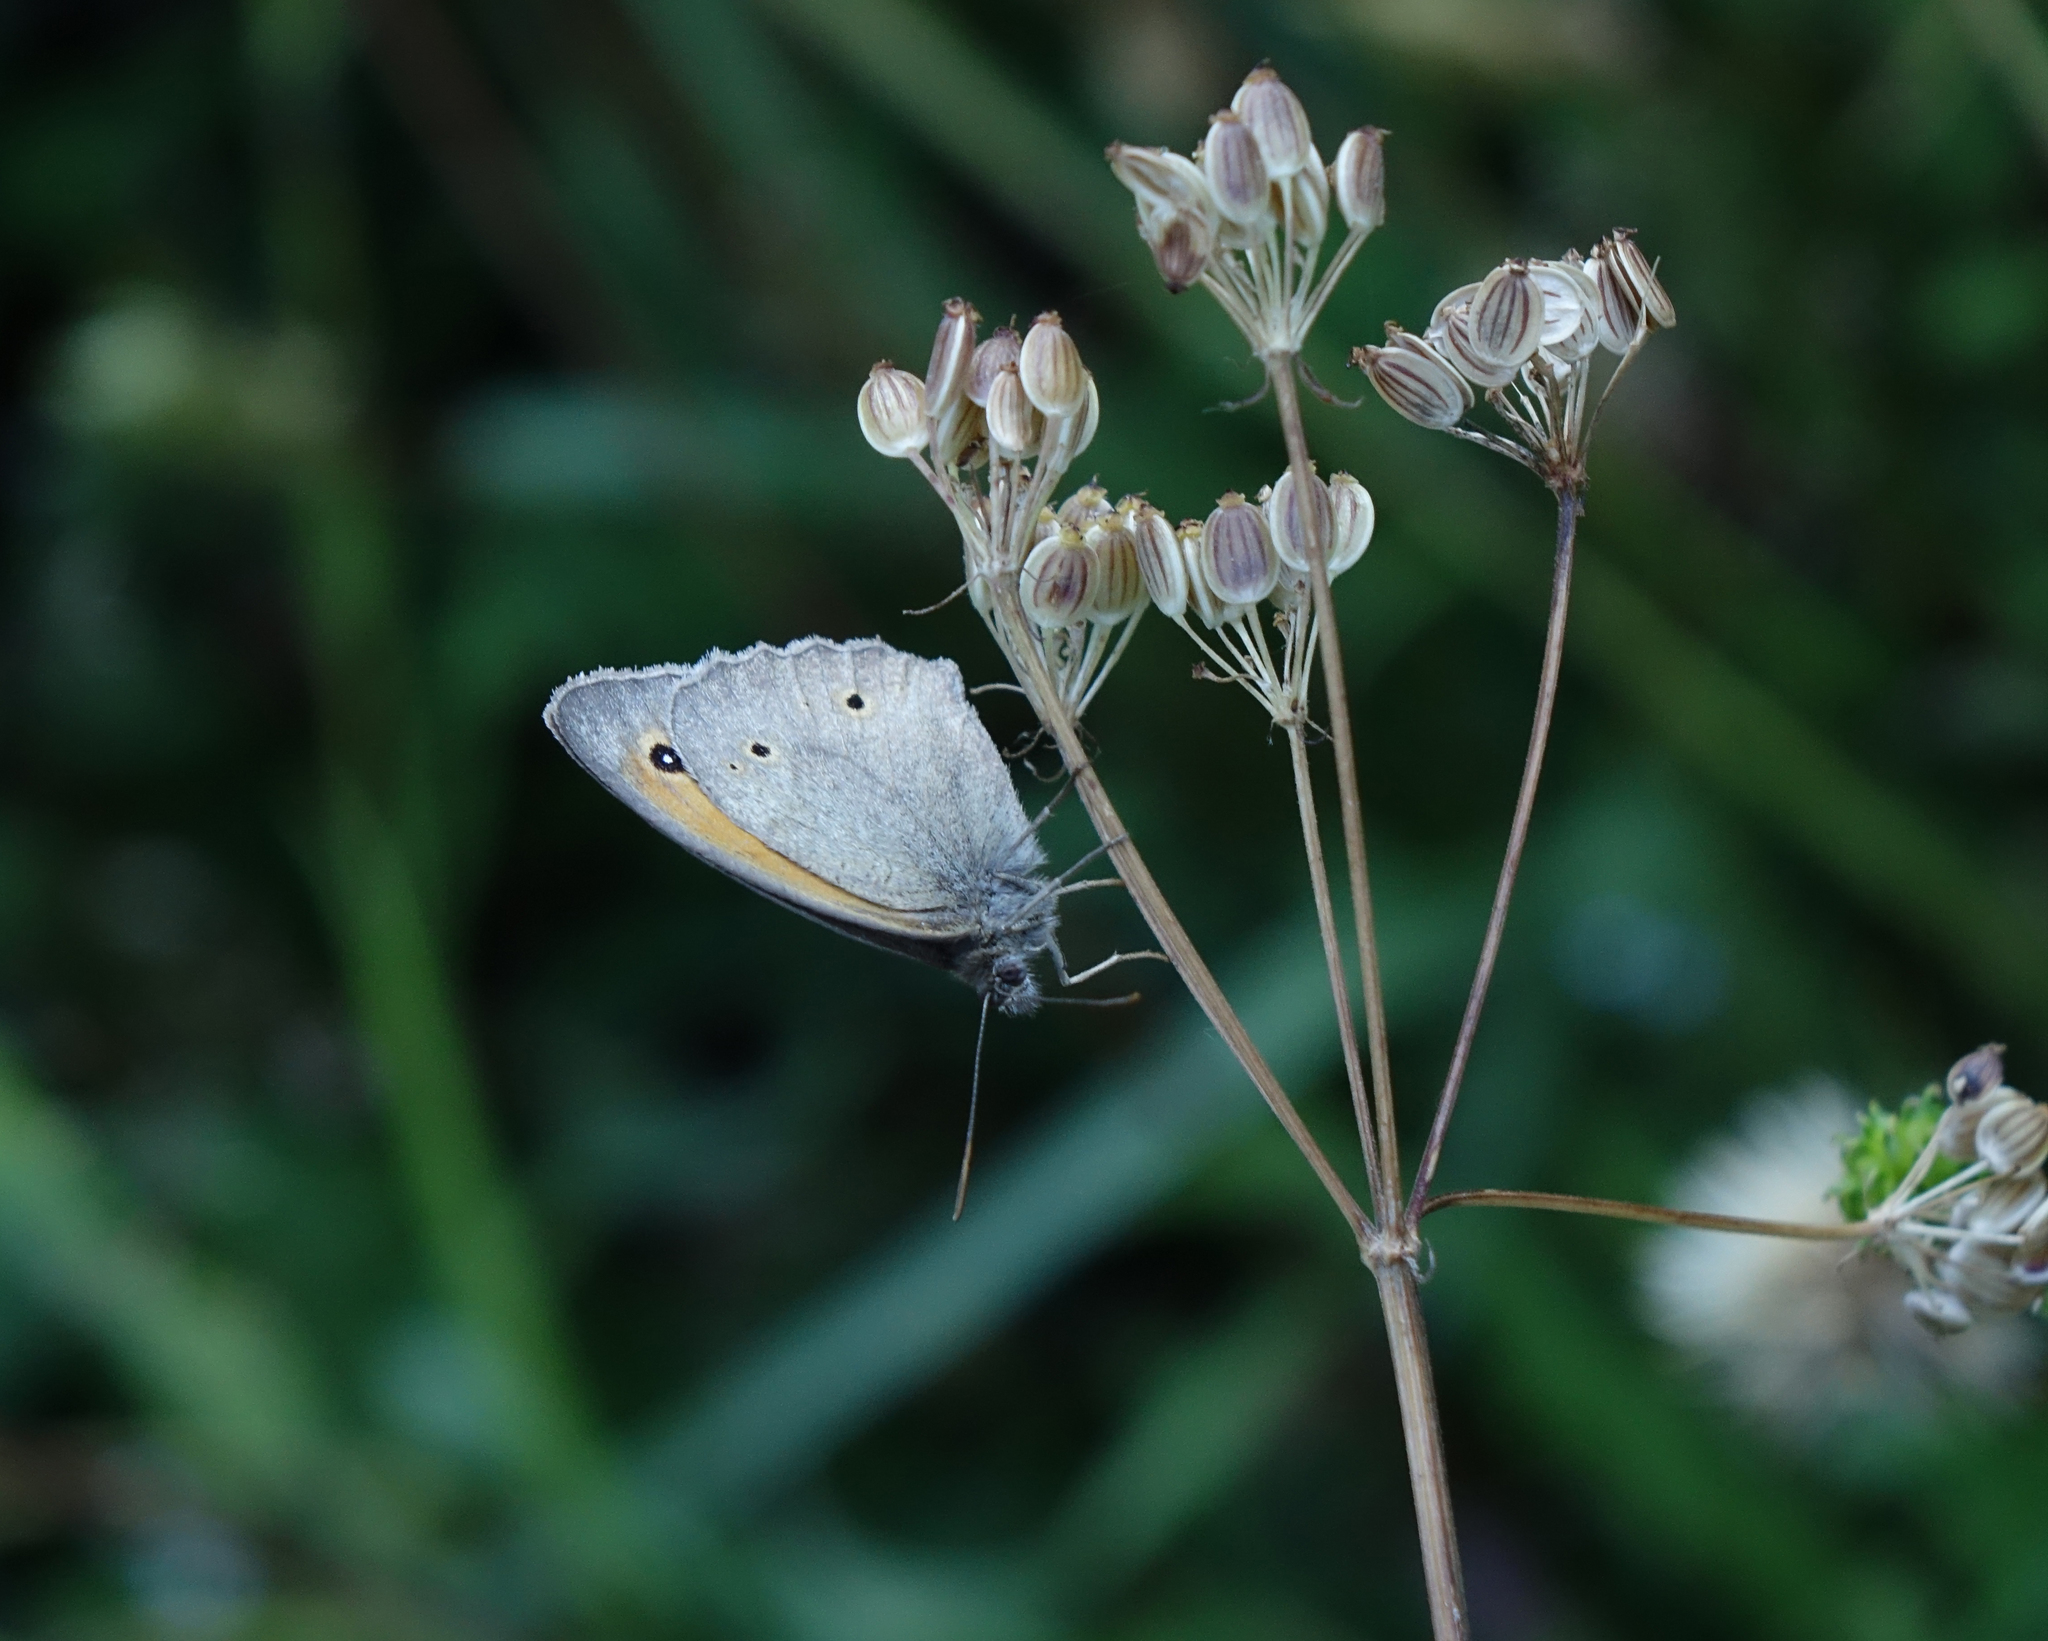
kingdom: Animalia
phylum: Arthropoda
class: Insecta
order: Lepidoptera
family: Nymphalidae
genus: Maniola
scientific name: Maniola jurtina
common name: Meadow brown
